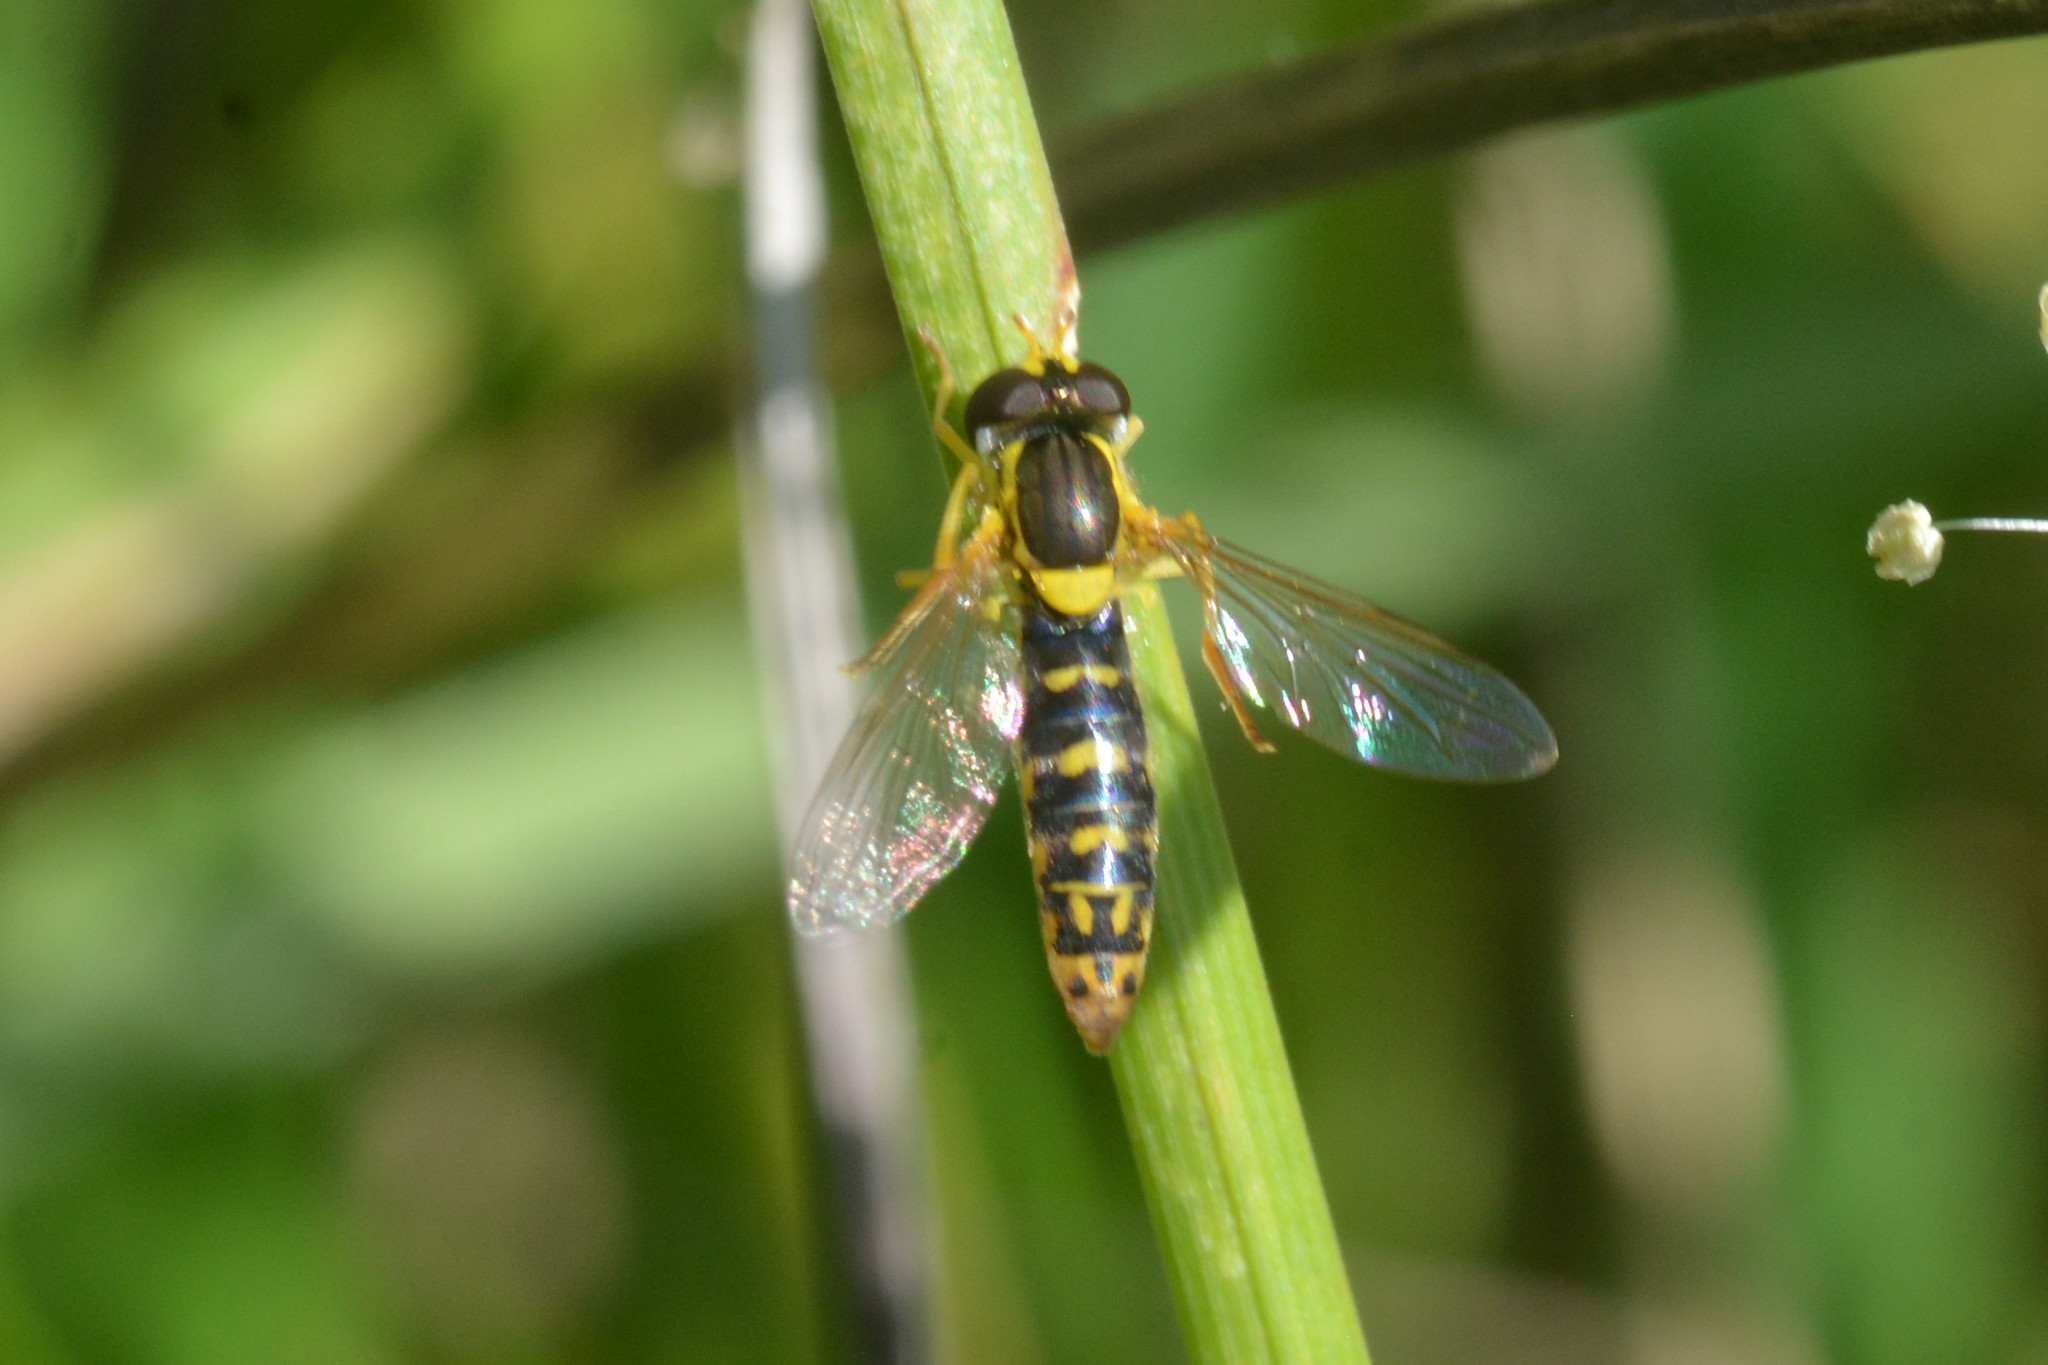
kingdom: Animalia
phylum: Arthropoda
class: Insecta
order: Diptera
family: Syrphidae
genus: Sphaerophoria
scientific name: Sphaerophoria
